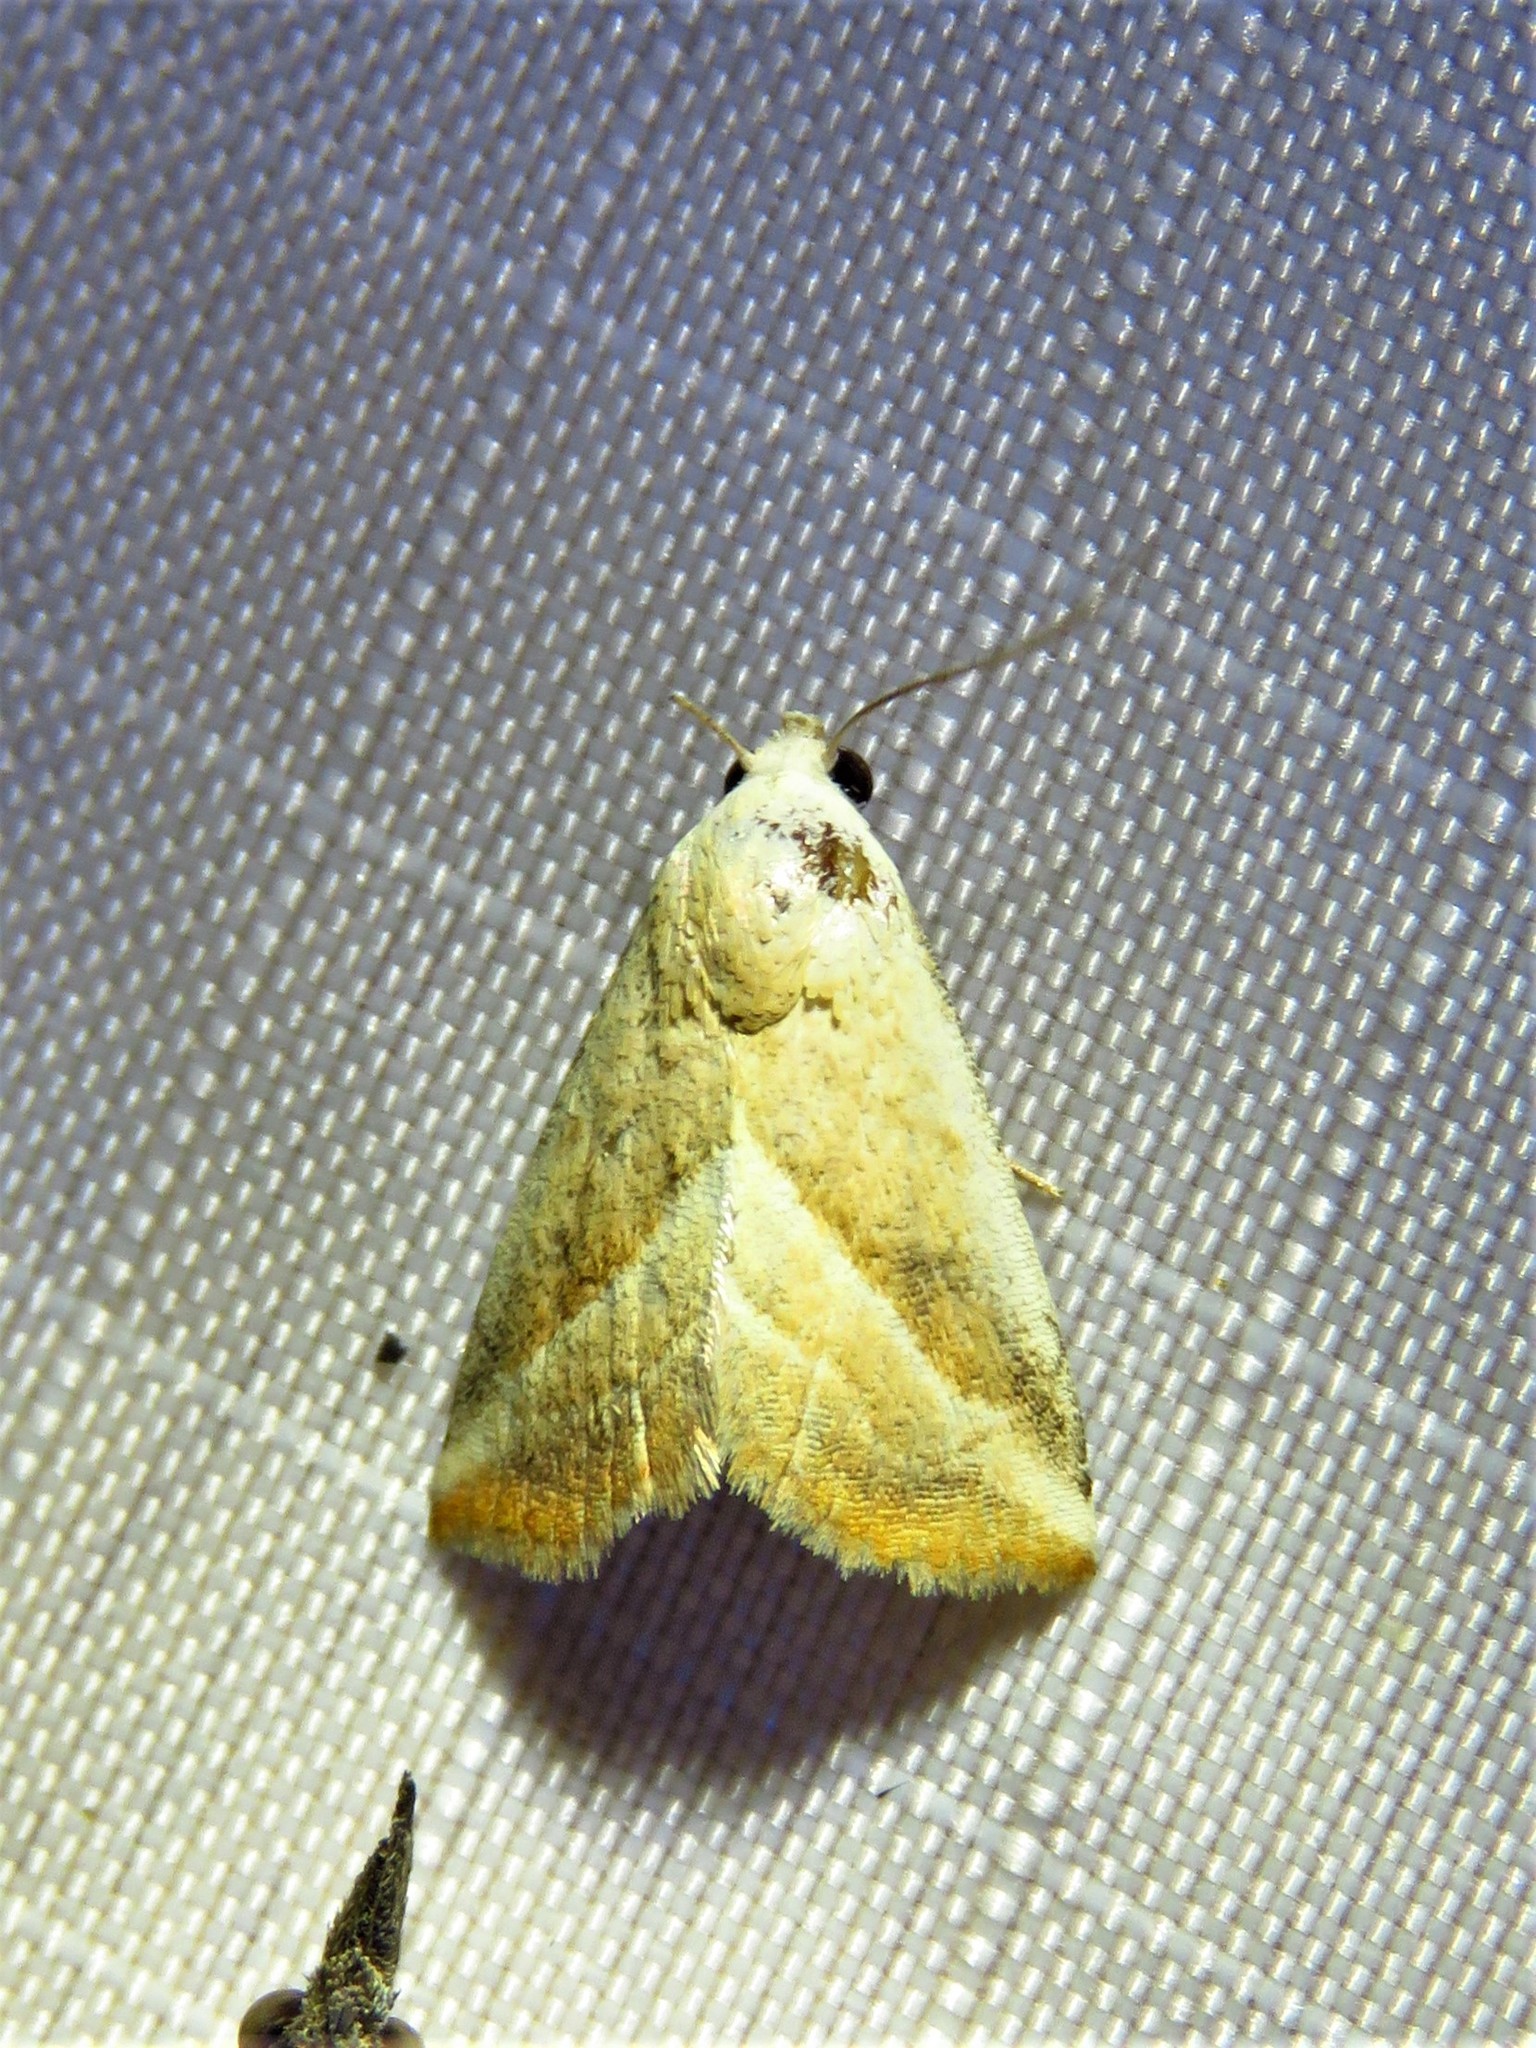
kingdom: Animalia
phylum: Arthropoda
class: Insecta
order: Lepidoptera
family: Noctuidae
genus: Eublemma
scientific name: Eublemma recta
